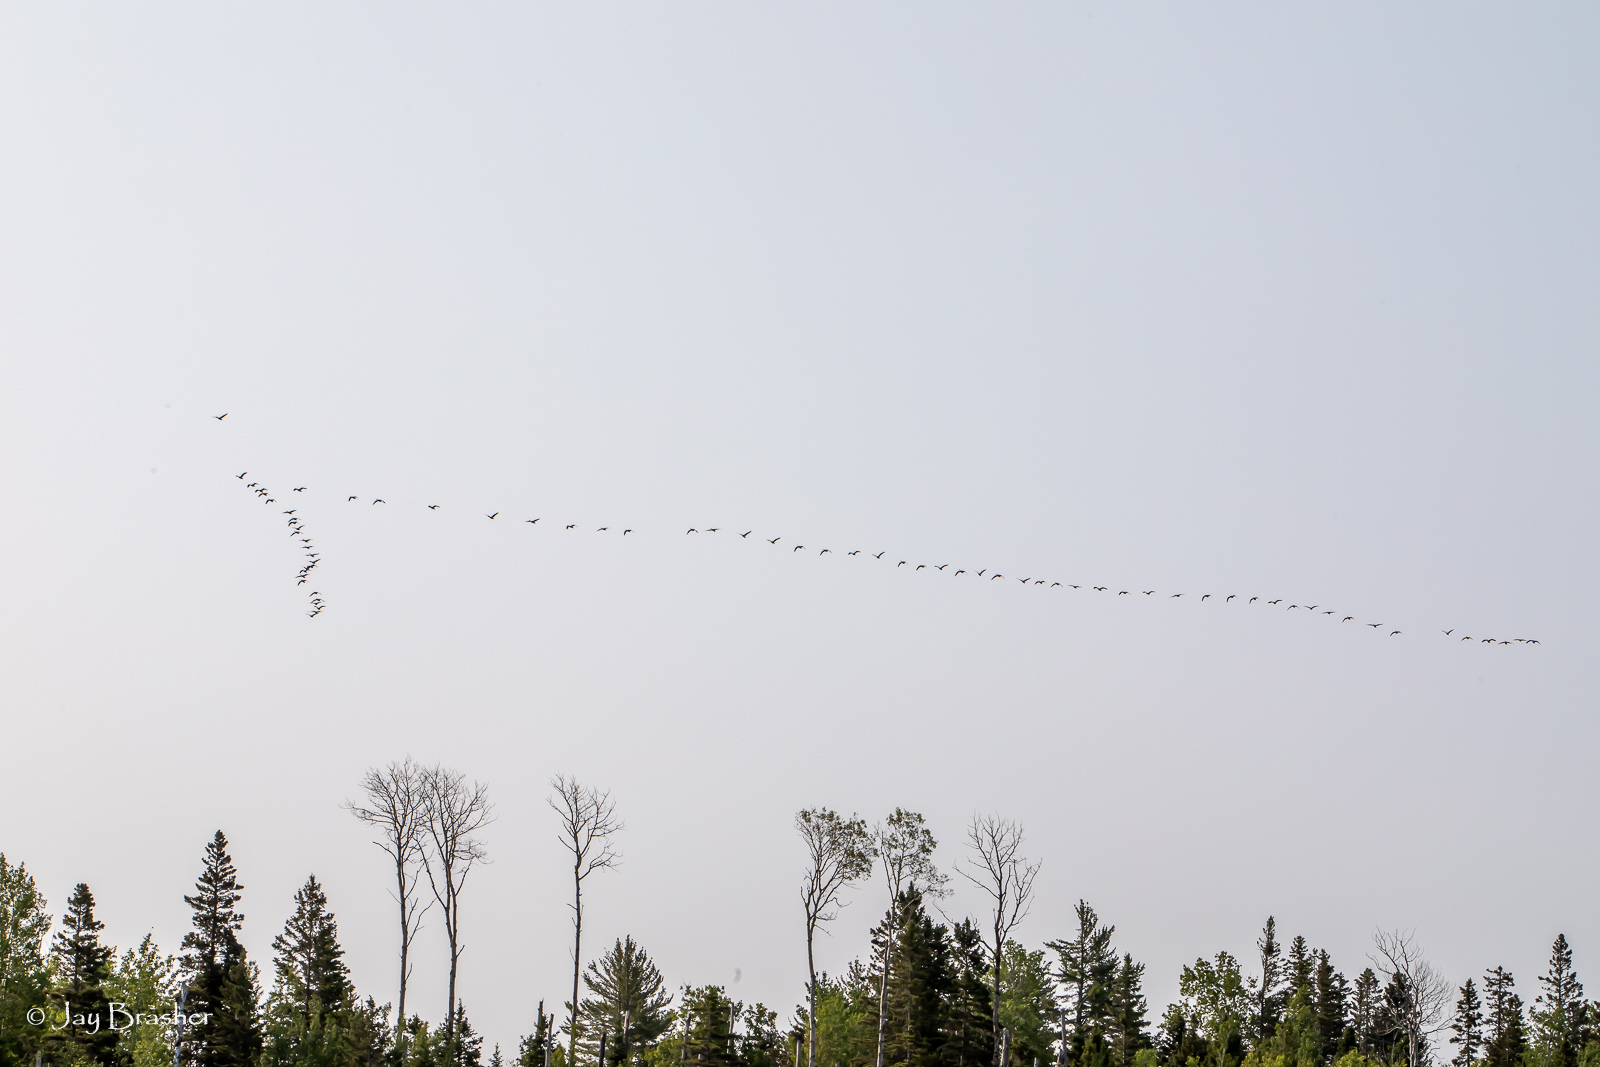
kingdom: Animalia
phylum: Chordata
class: Aves
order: Anseriformes
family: Anatidae
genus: Branta
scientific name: Branta canadensis
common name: Canada goose
